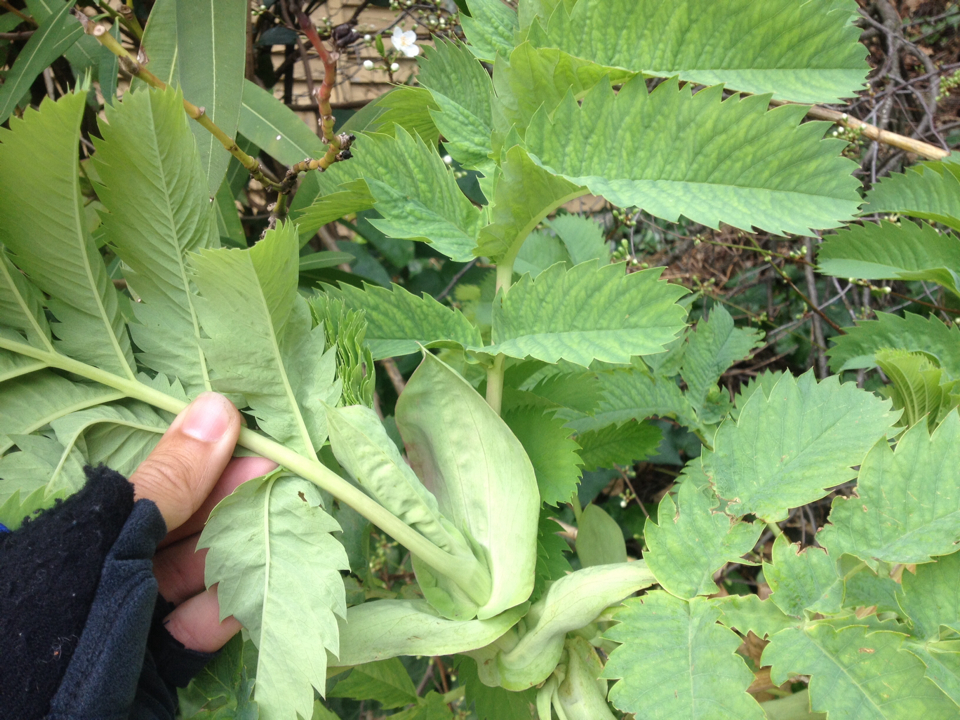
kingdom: Plantae
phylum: Tracheophyta
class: Magnoliopsida
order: Geraniales
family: Melianthaceae
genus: Melianthus
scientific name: Melianthus major
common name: Honey-flower
